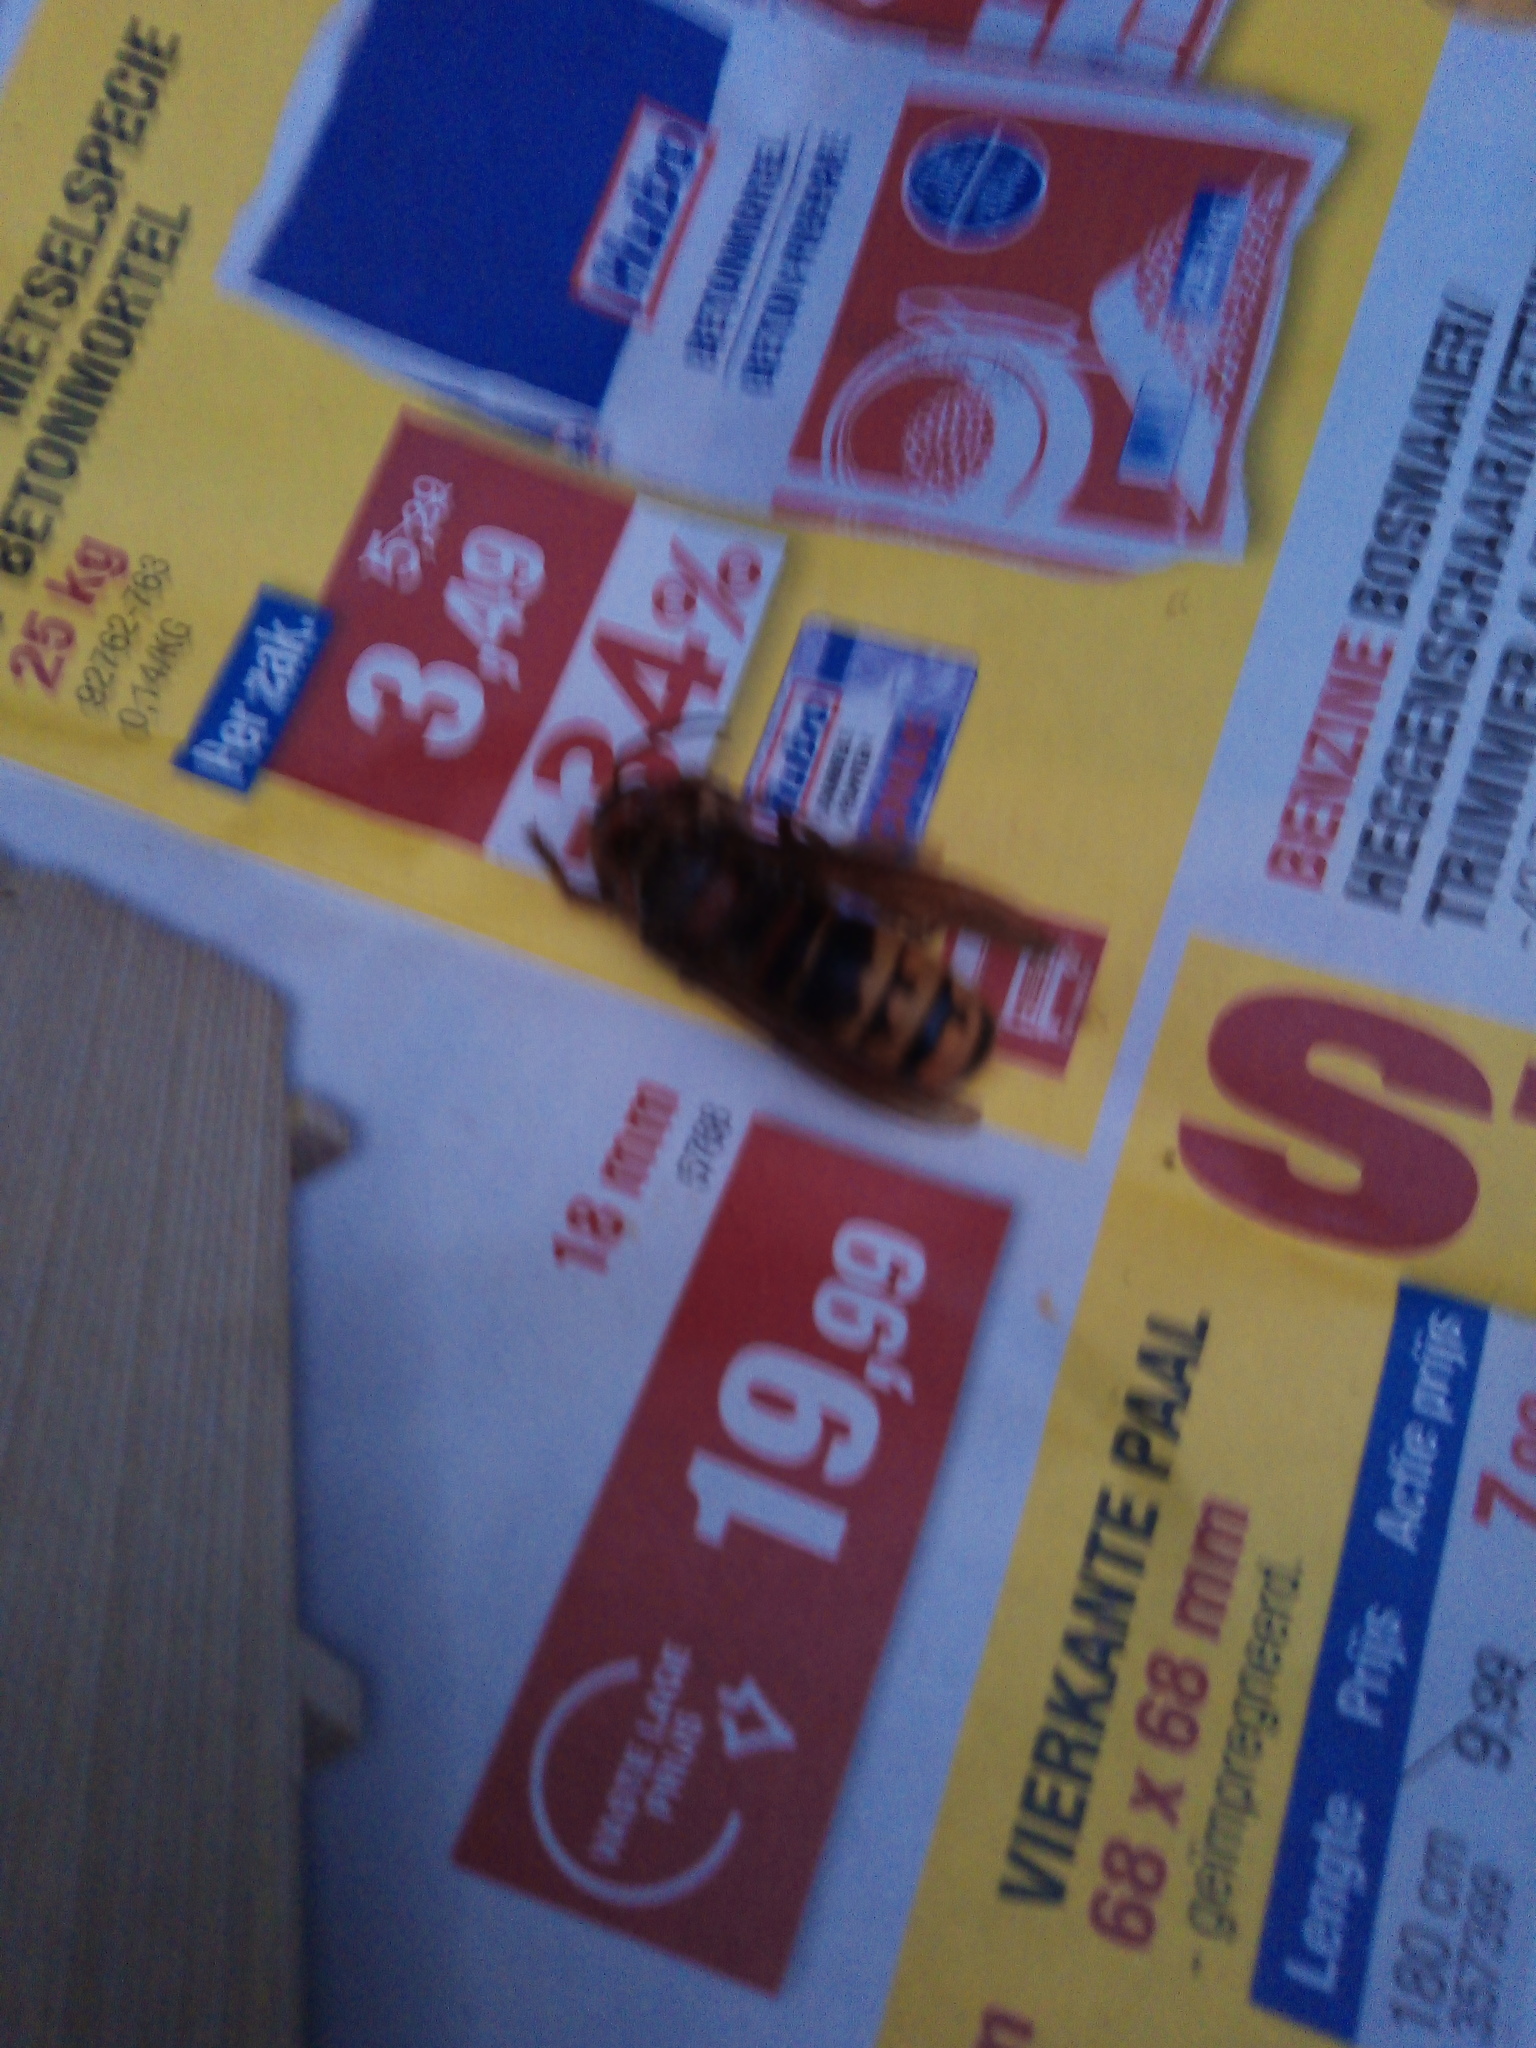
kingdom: Animalia
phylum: Arthropoda
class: Insecta
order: Hymenoptera
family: Vespidae
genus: Vespa
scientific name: Vespa crabro
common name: Hornet
